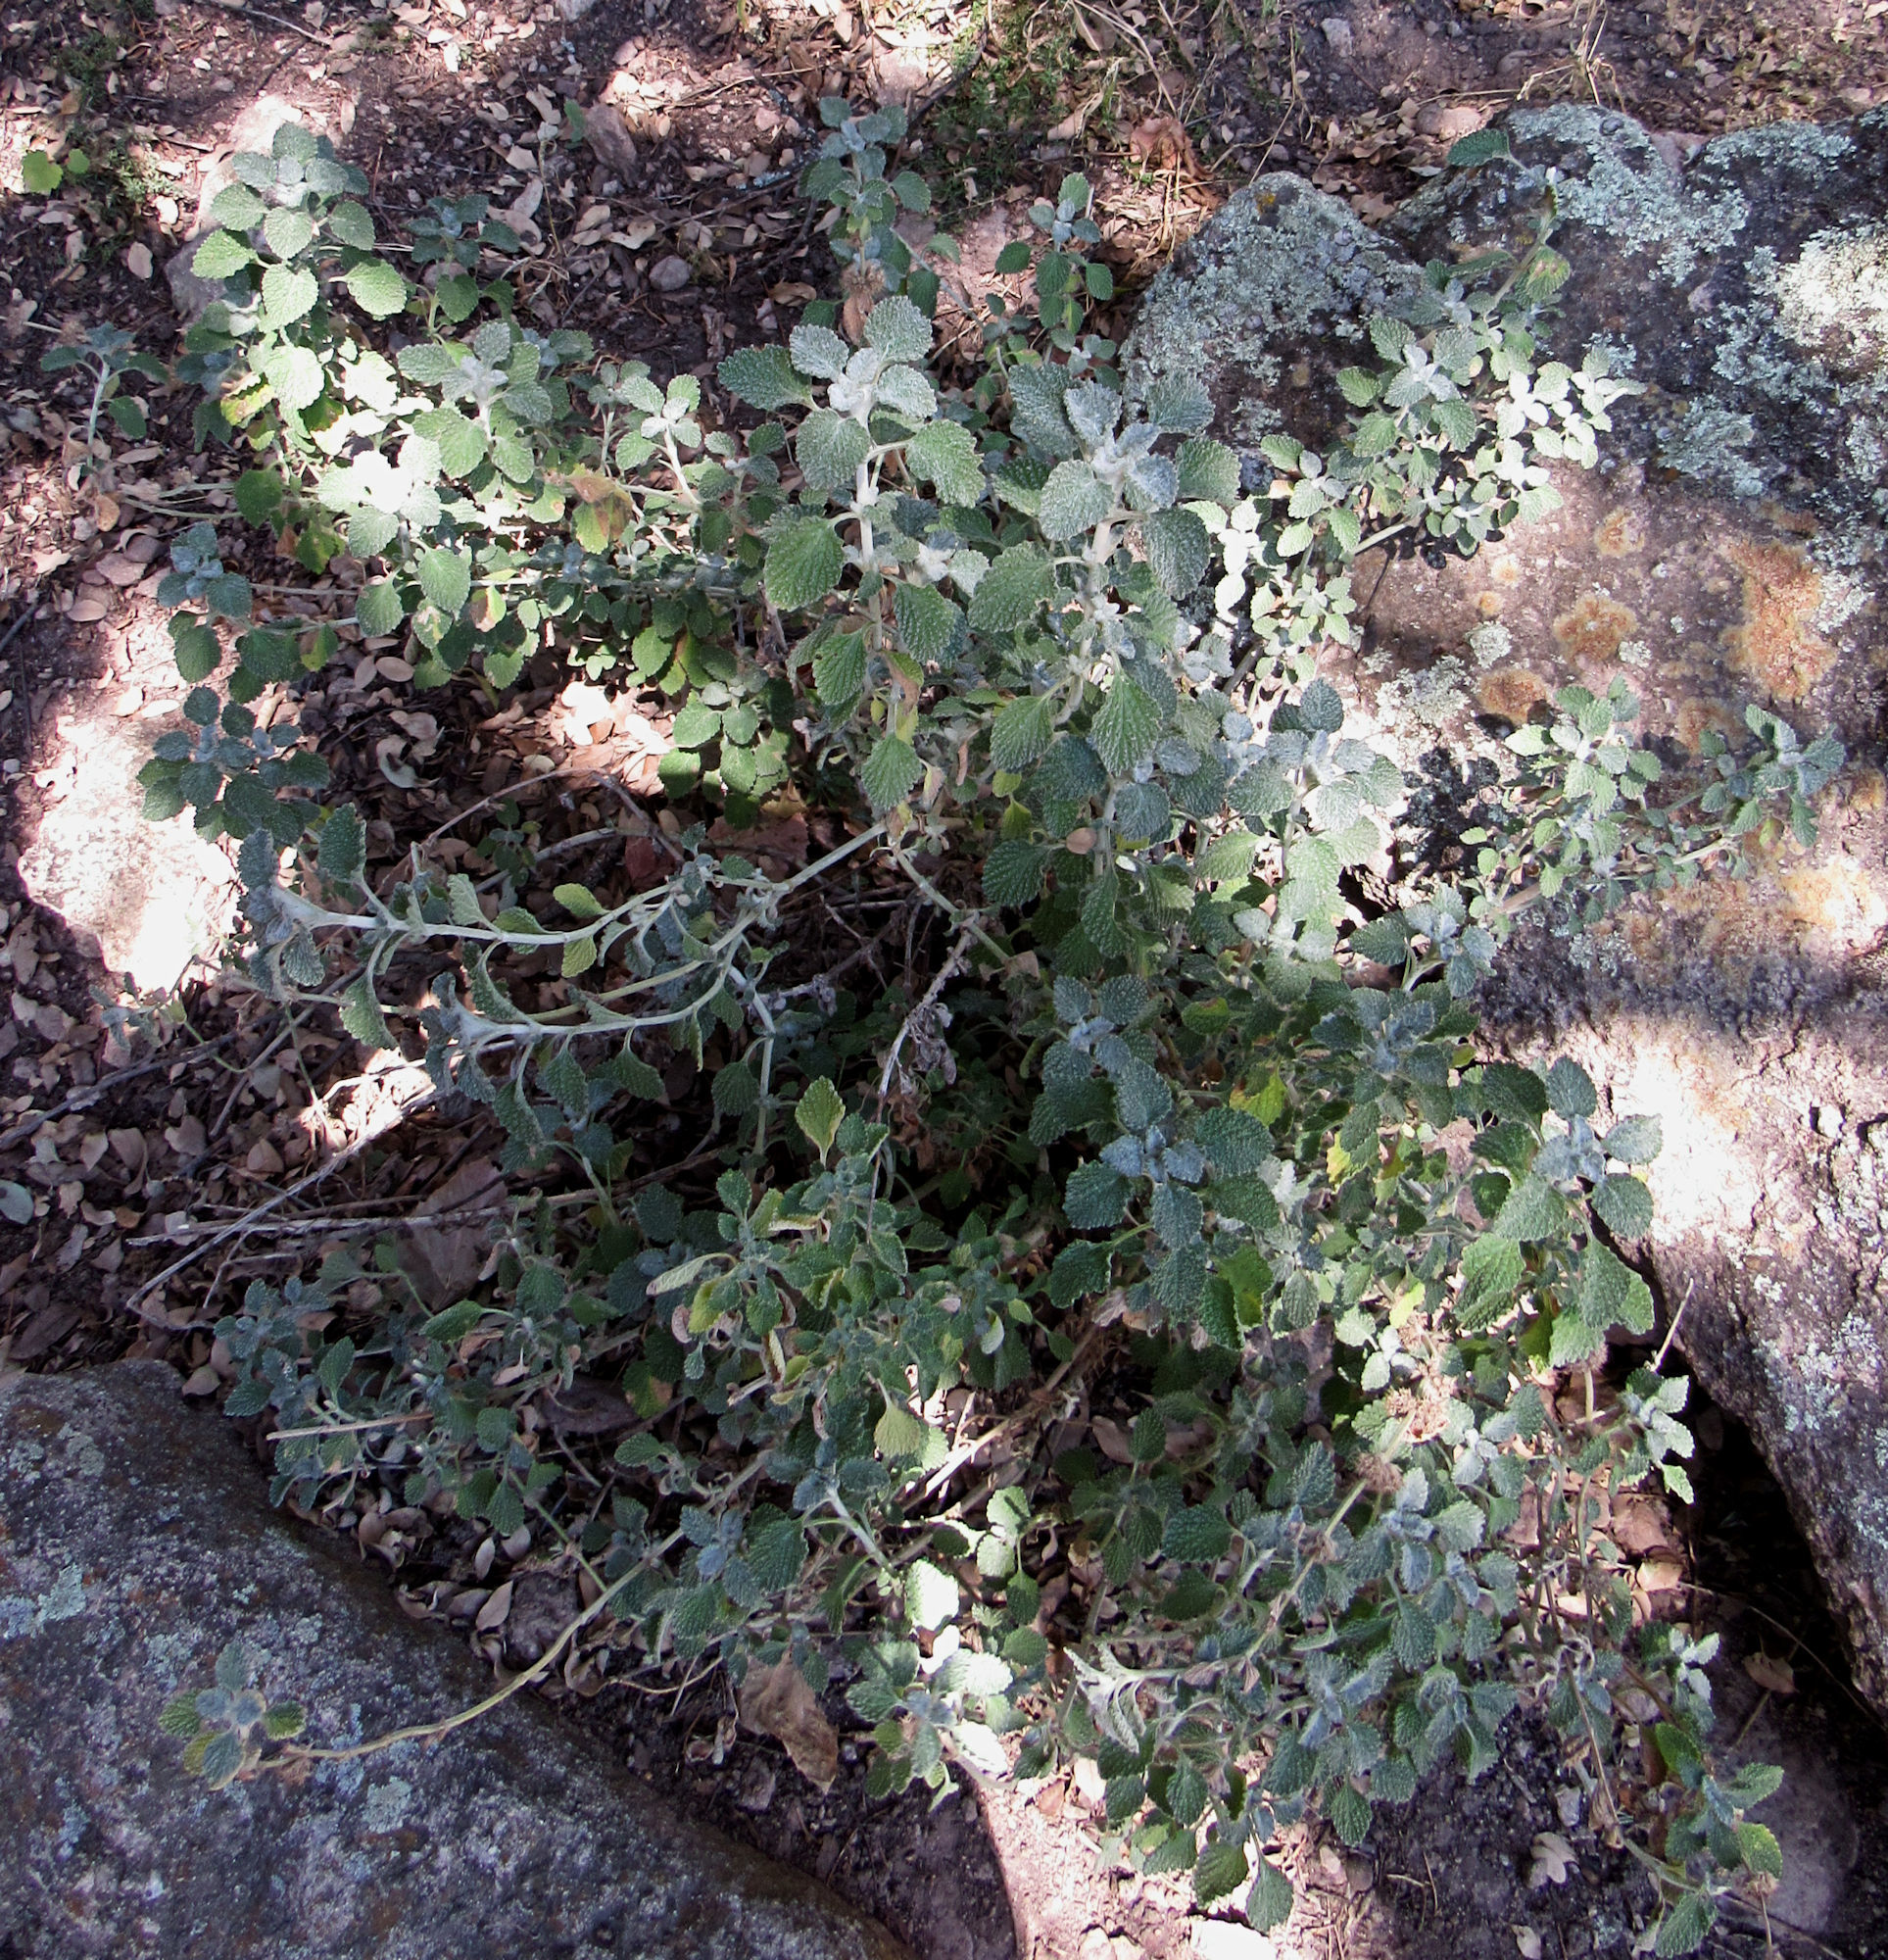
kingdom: Plantae
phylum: Tracheophyta
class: Magnoliopsida
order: Lamiales
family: Lamiaceae
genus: Marrubium
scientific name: Marrubium vulgare
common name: Horehound
